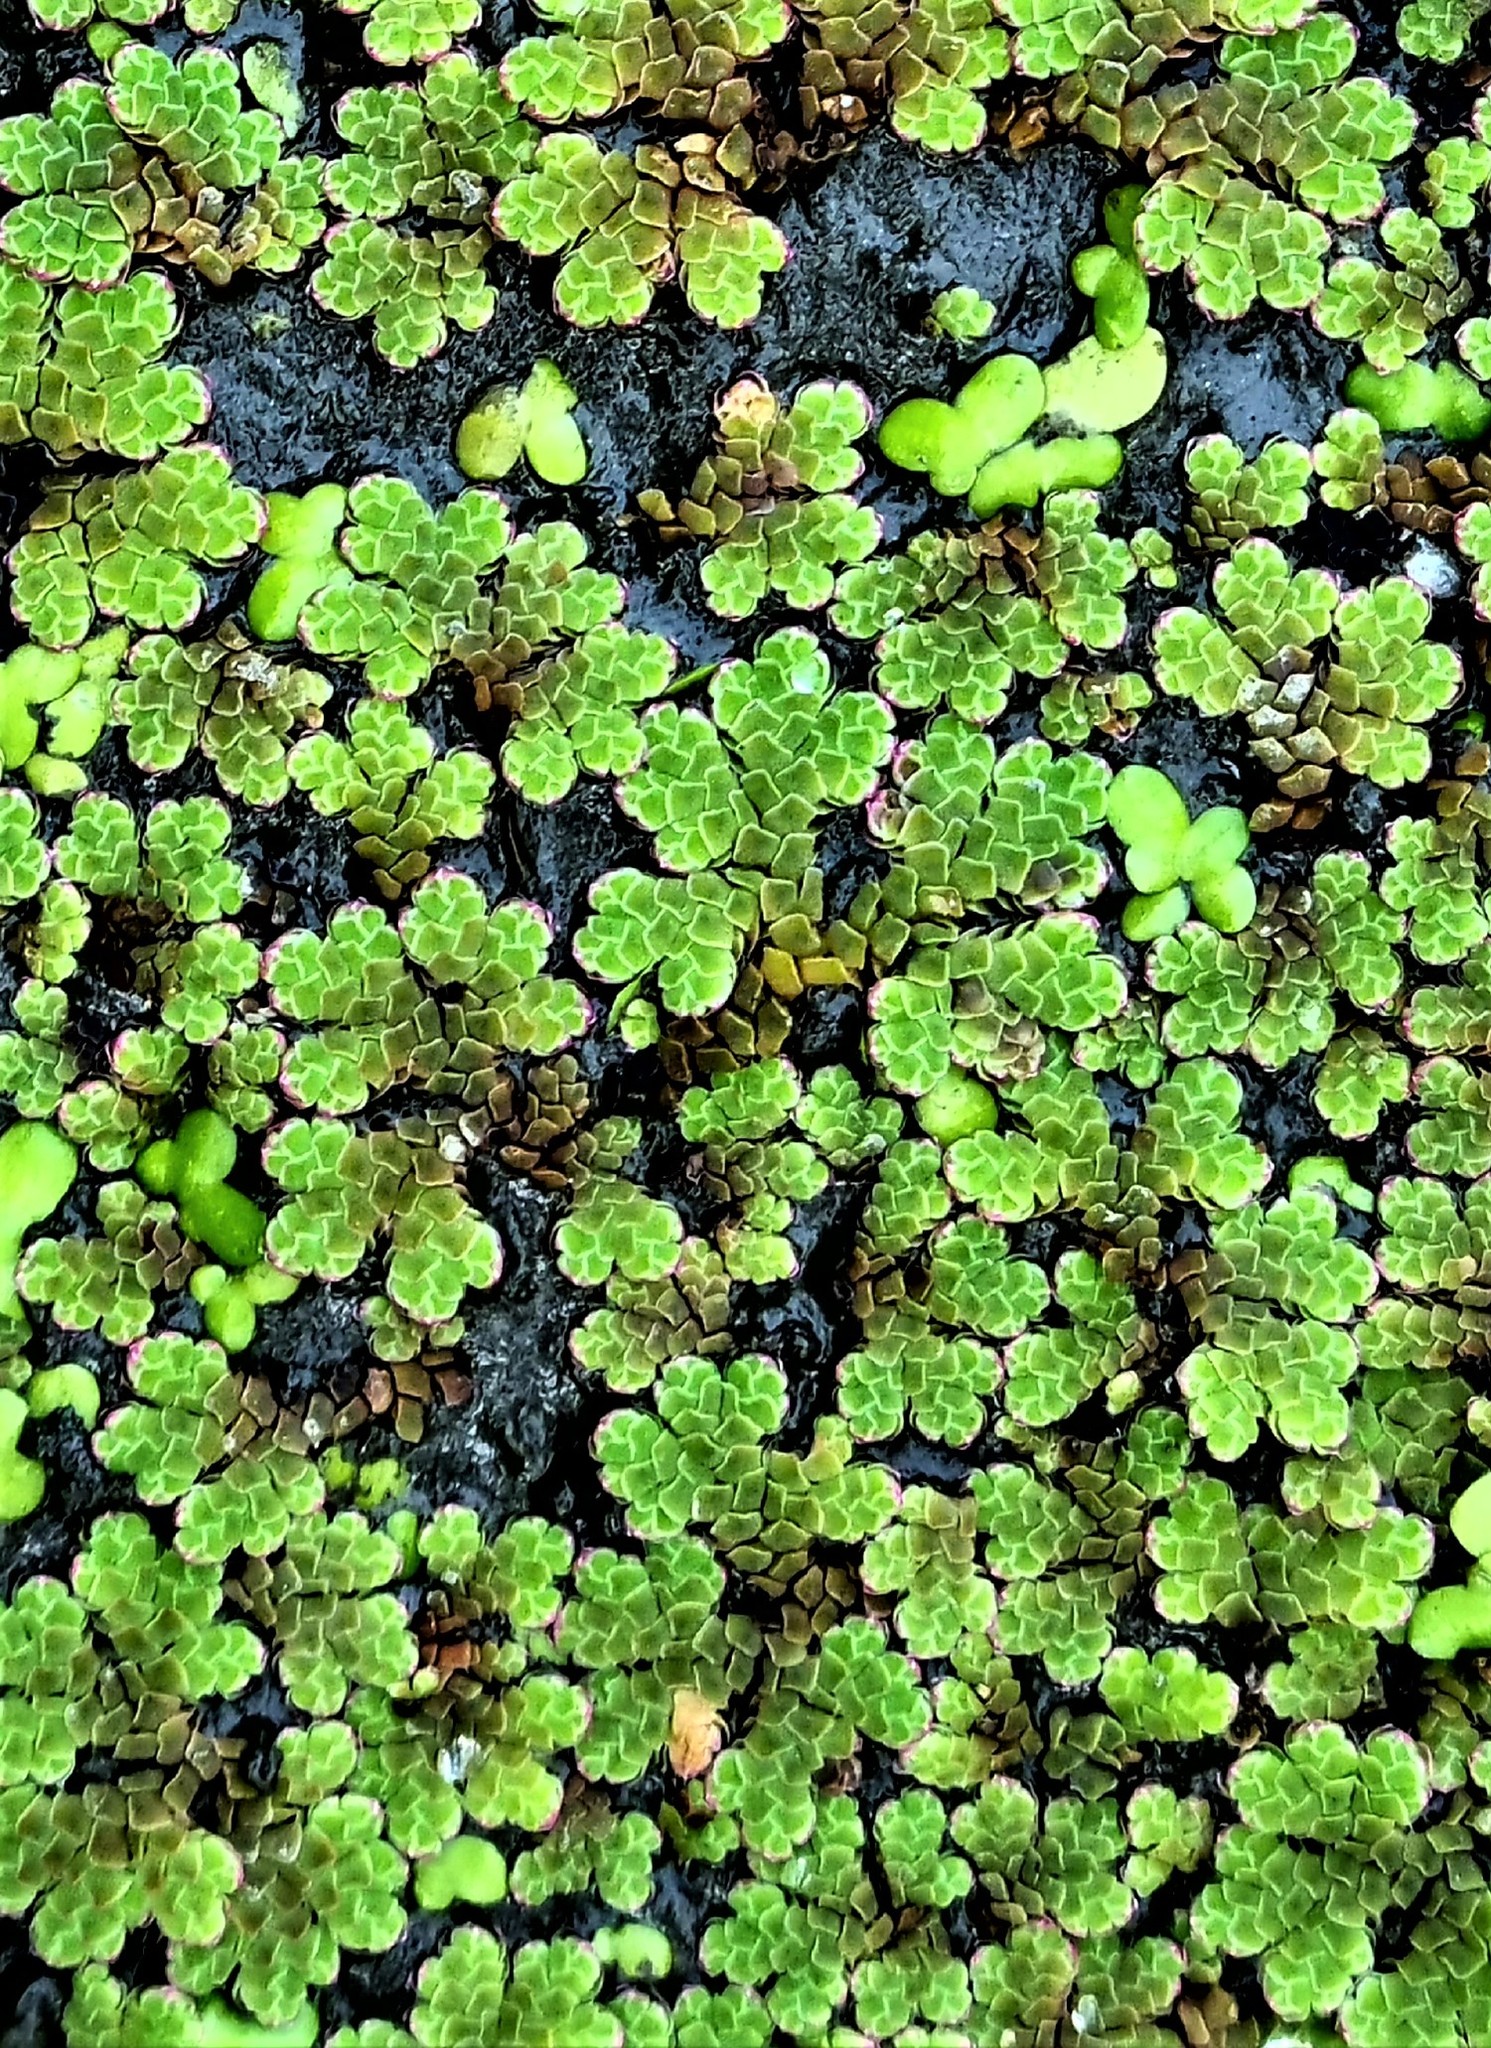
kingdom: Plantae
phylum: Tracheophyta
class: Polypodiopsida
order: Salviniales
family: Salviniaceae
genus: Azolla
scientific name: Azolla rubra
